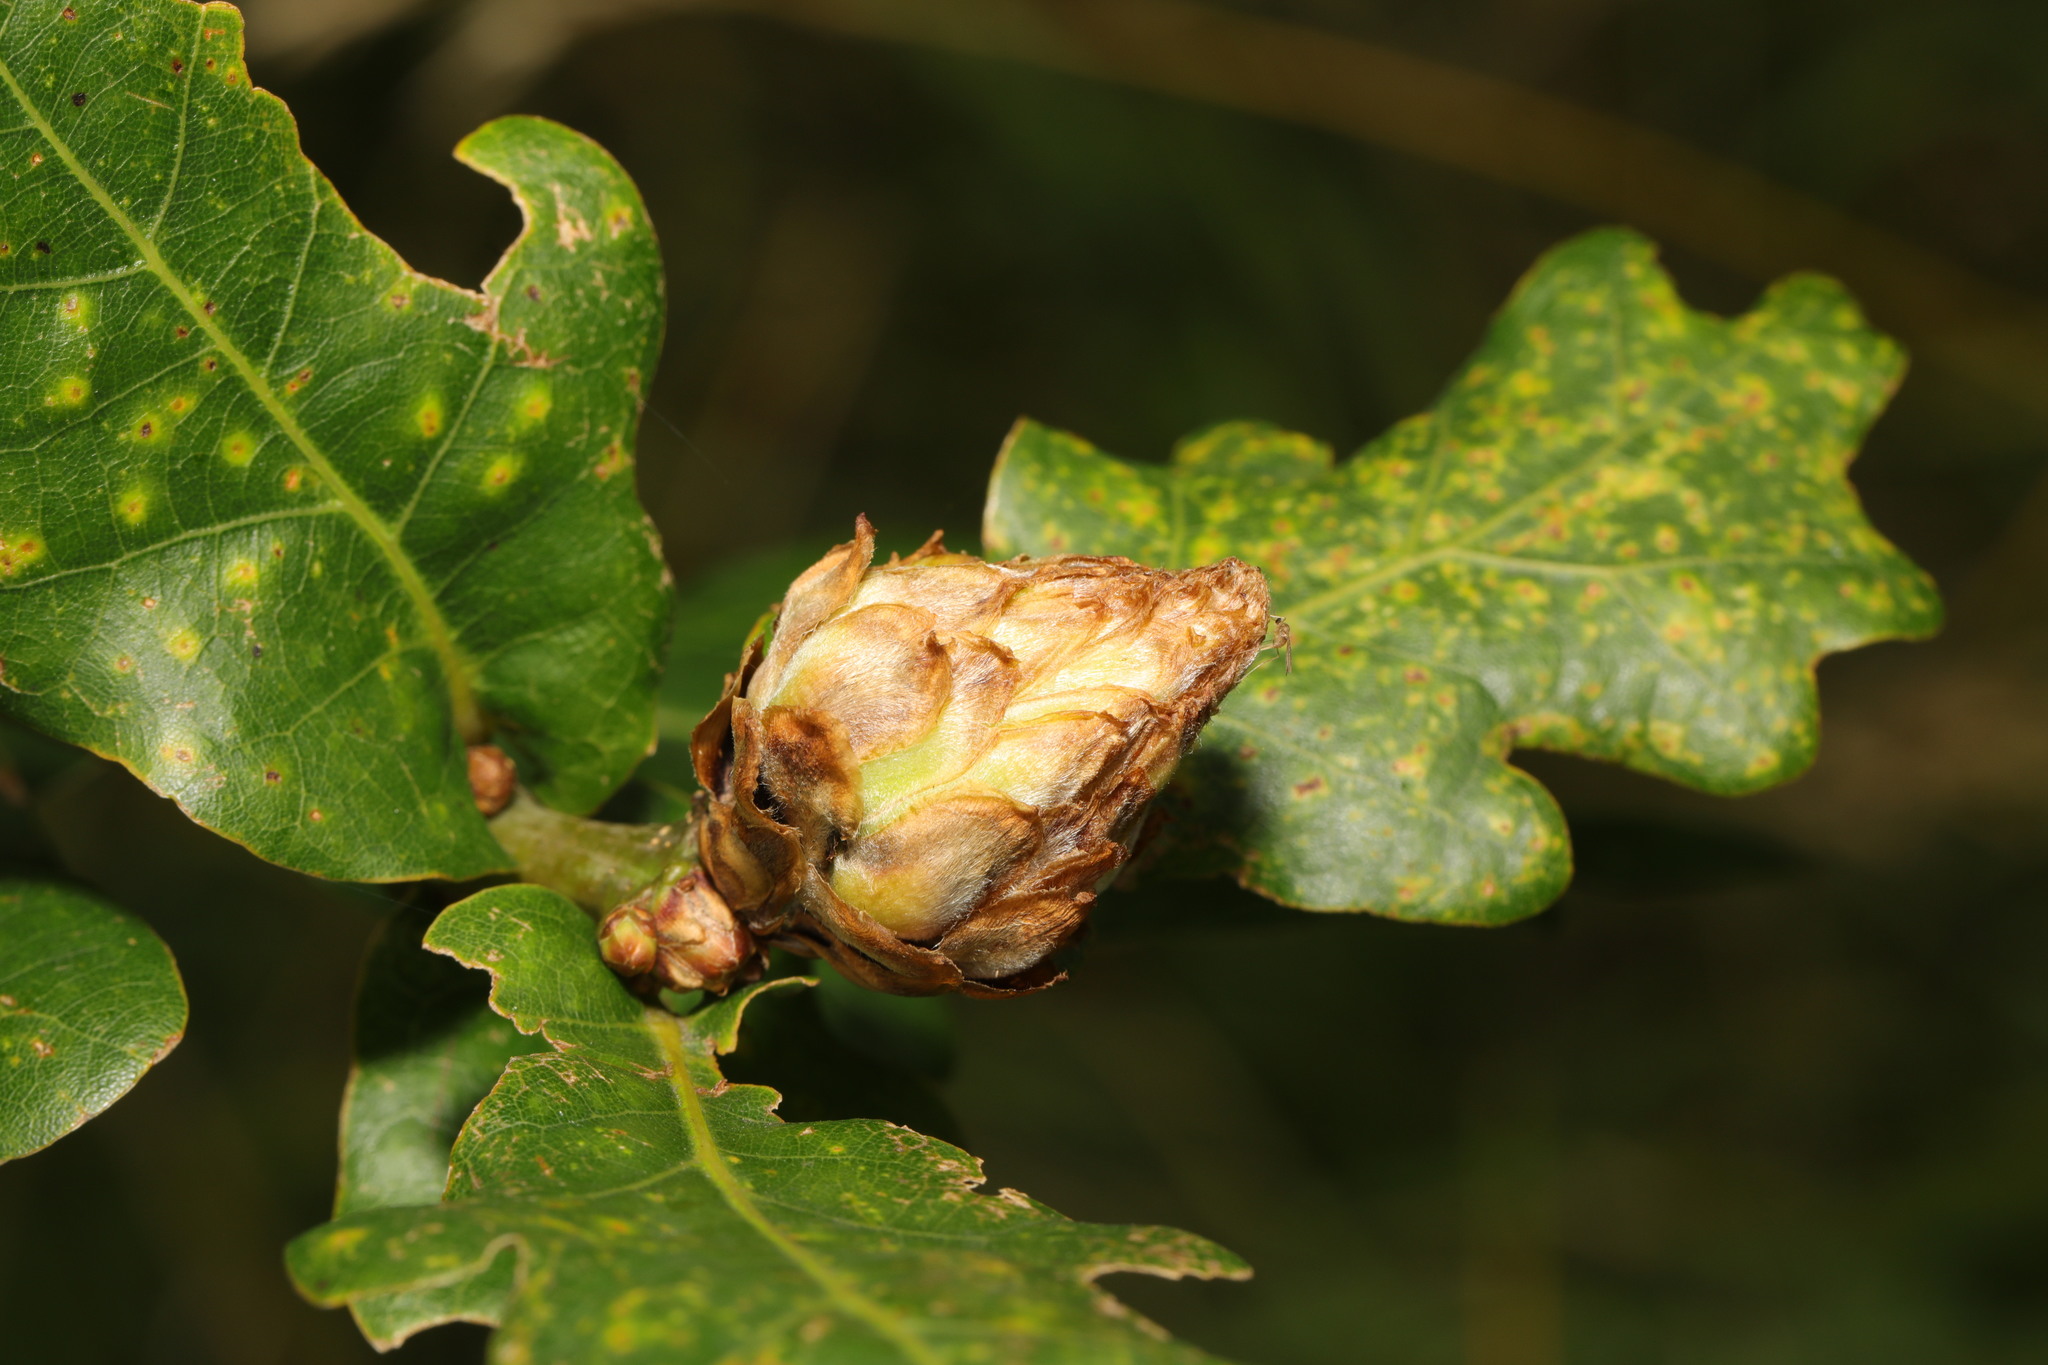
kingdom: Animalia
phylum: Arthropoda
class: Insecta
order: Hymenoptera
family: Cynipidae
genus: Andricus
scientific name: Andricus foecundatrix
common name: Artichoke gall
